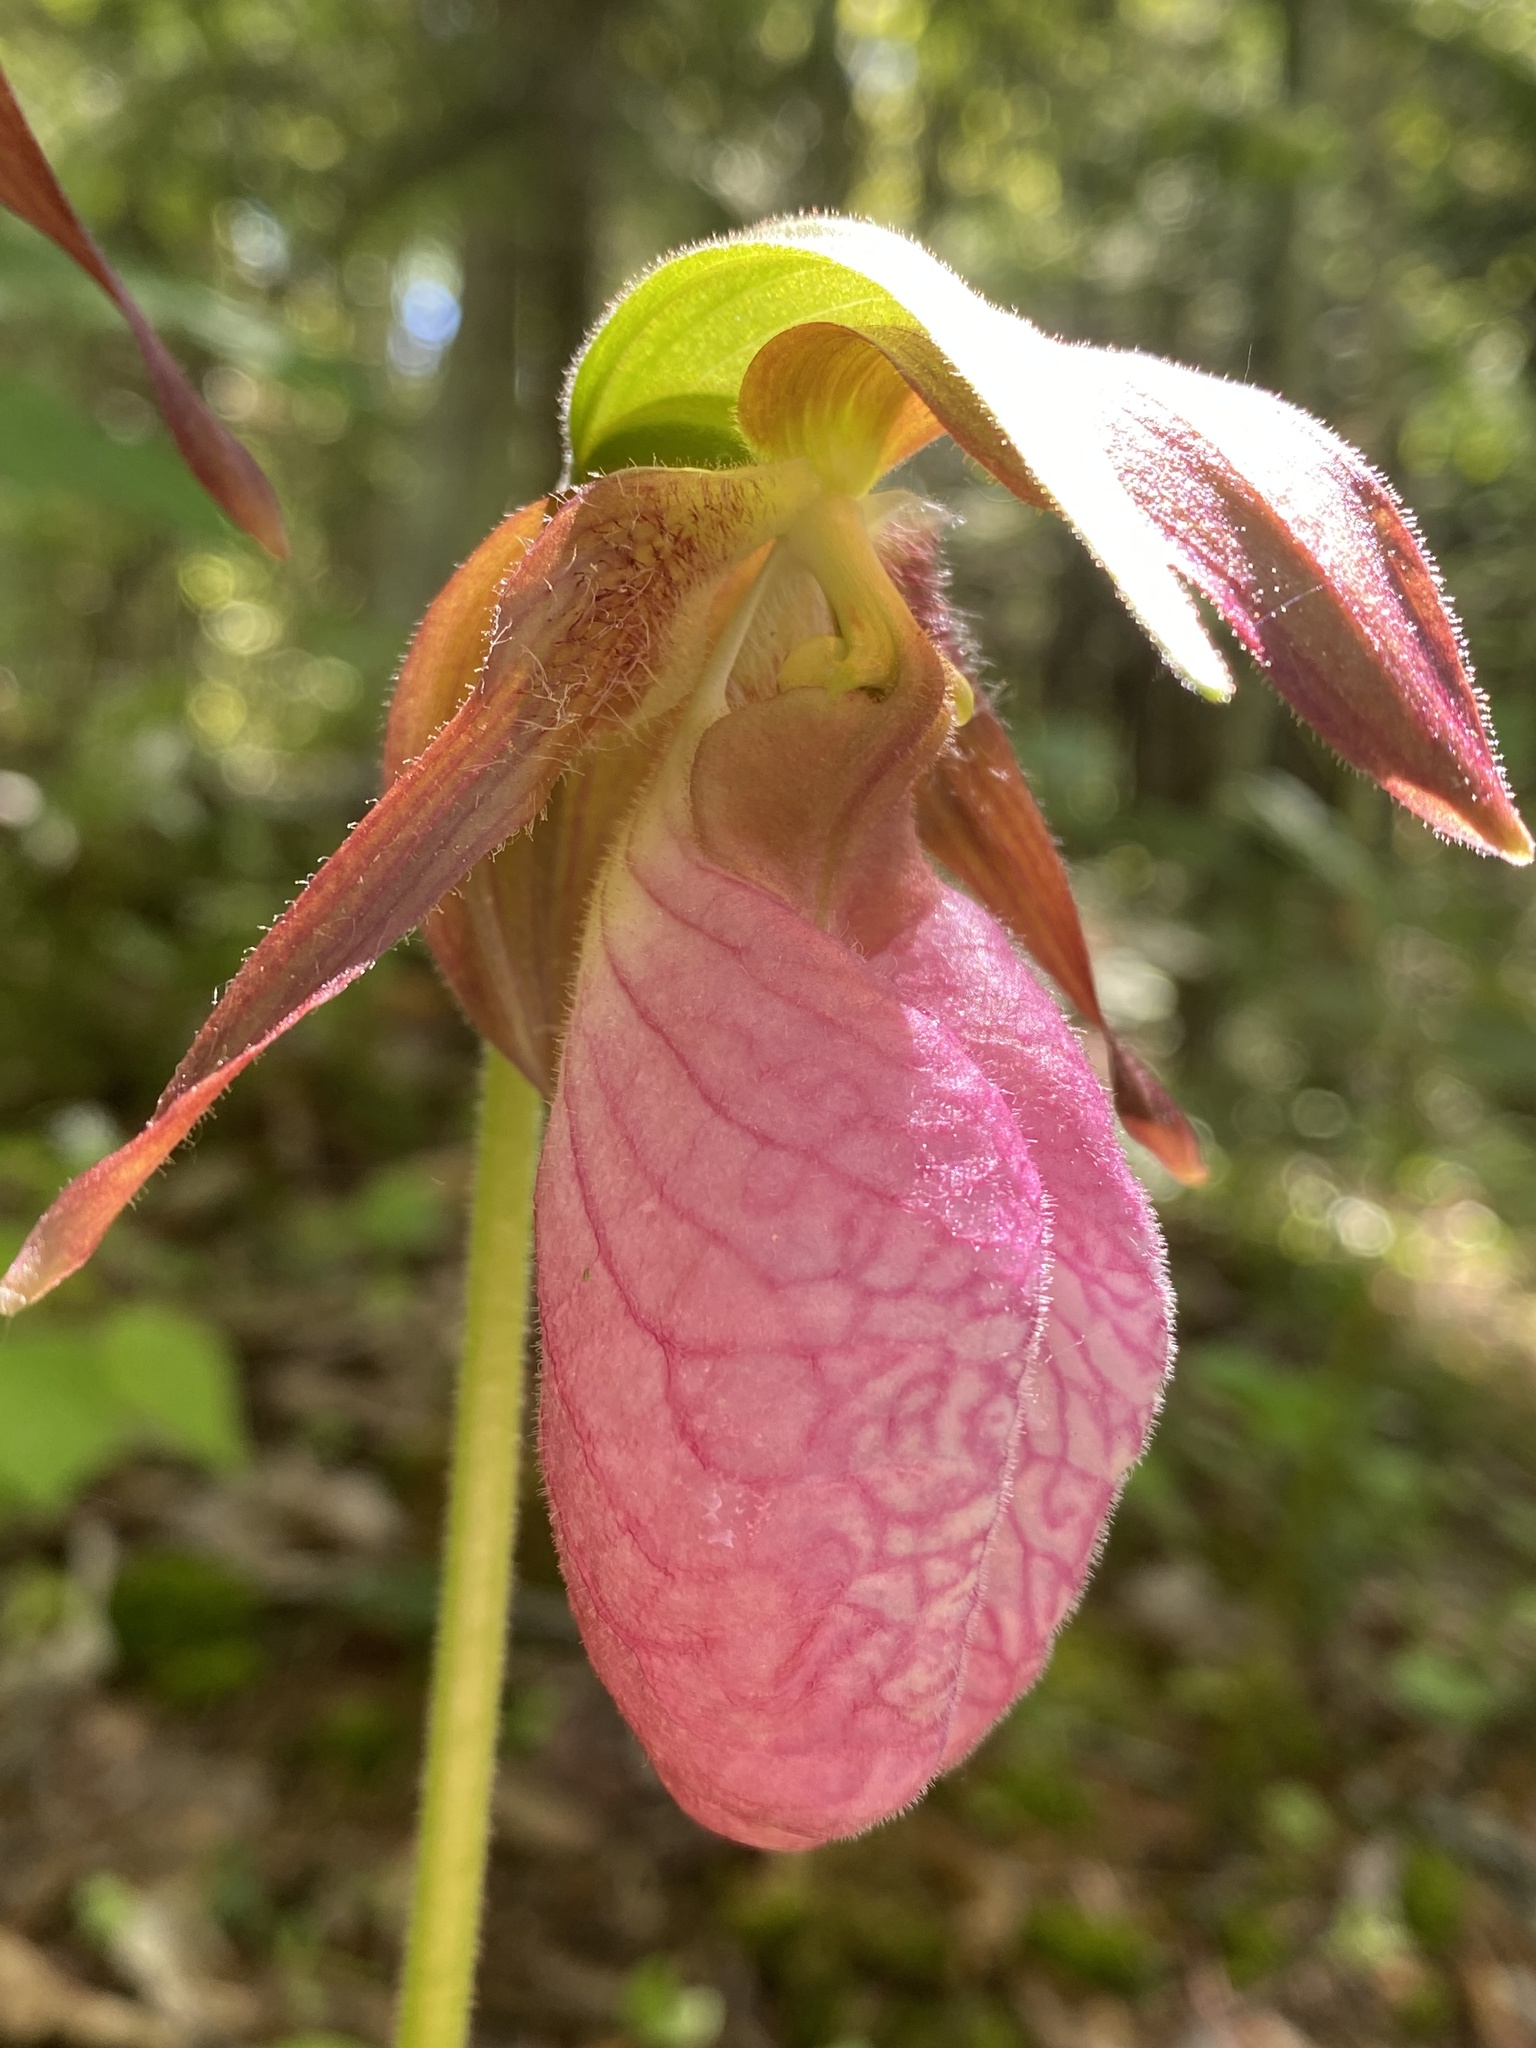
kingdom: Plantae
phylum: Tracheophyta
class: Liliopsida
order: Asparagales
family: Orchidaceae
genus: Cypripedium
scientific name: Cypripedium acaule
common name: Pink lady's-slipper
